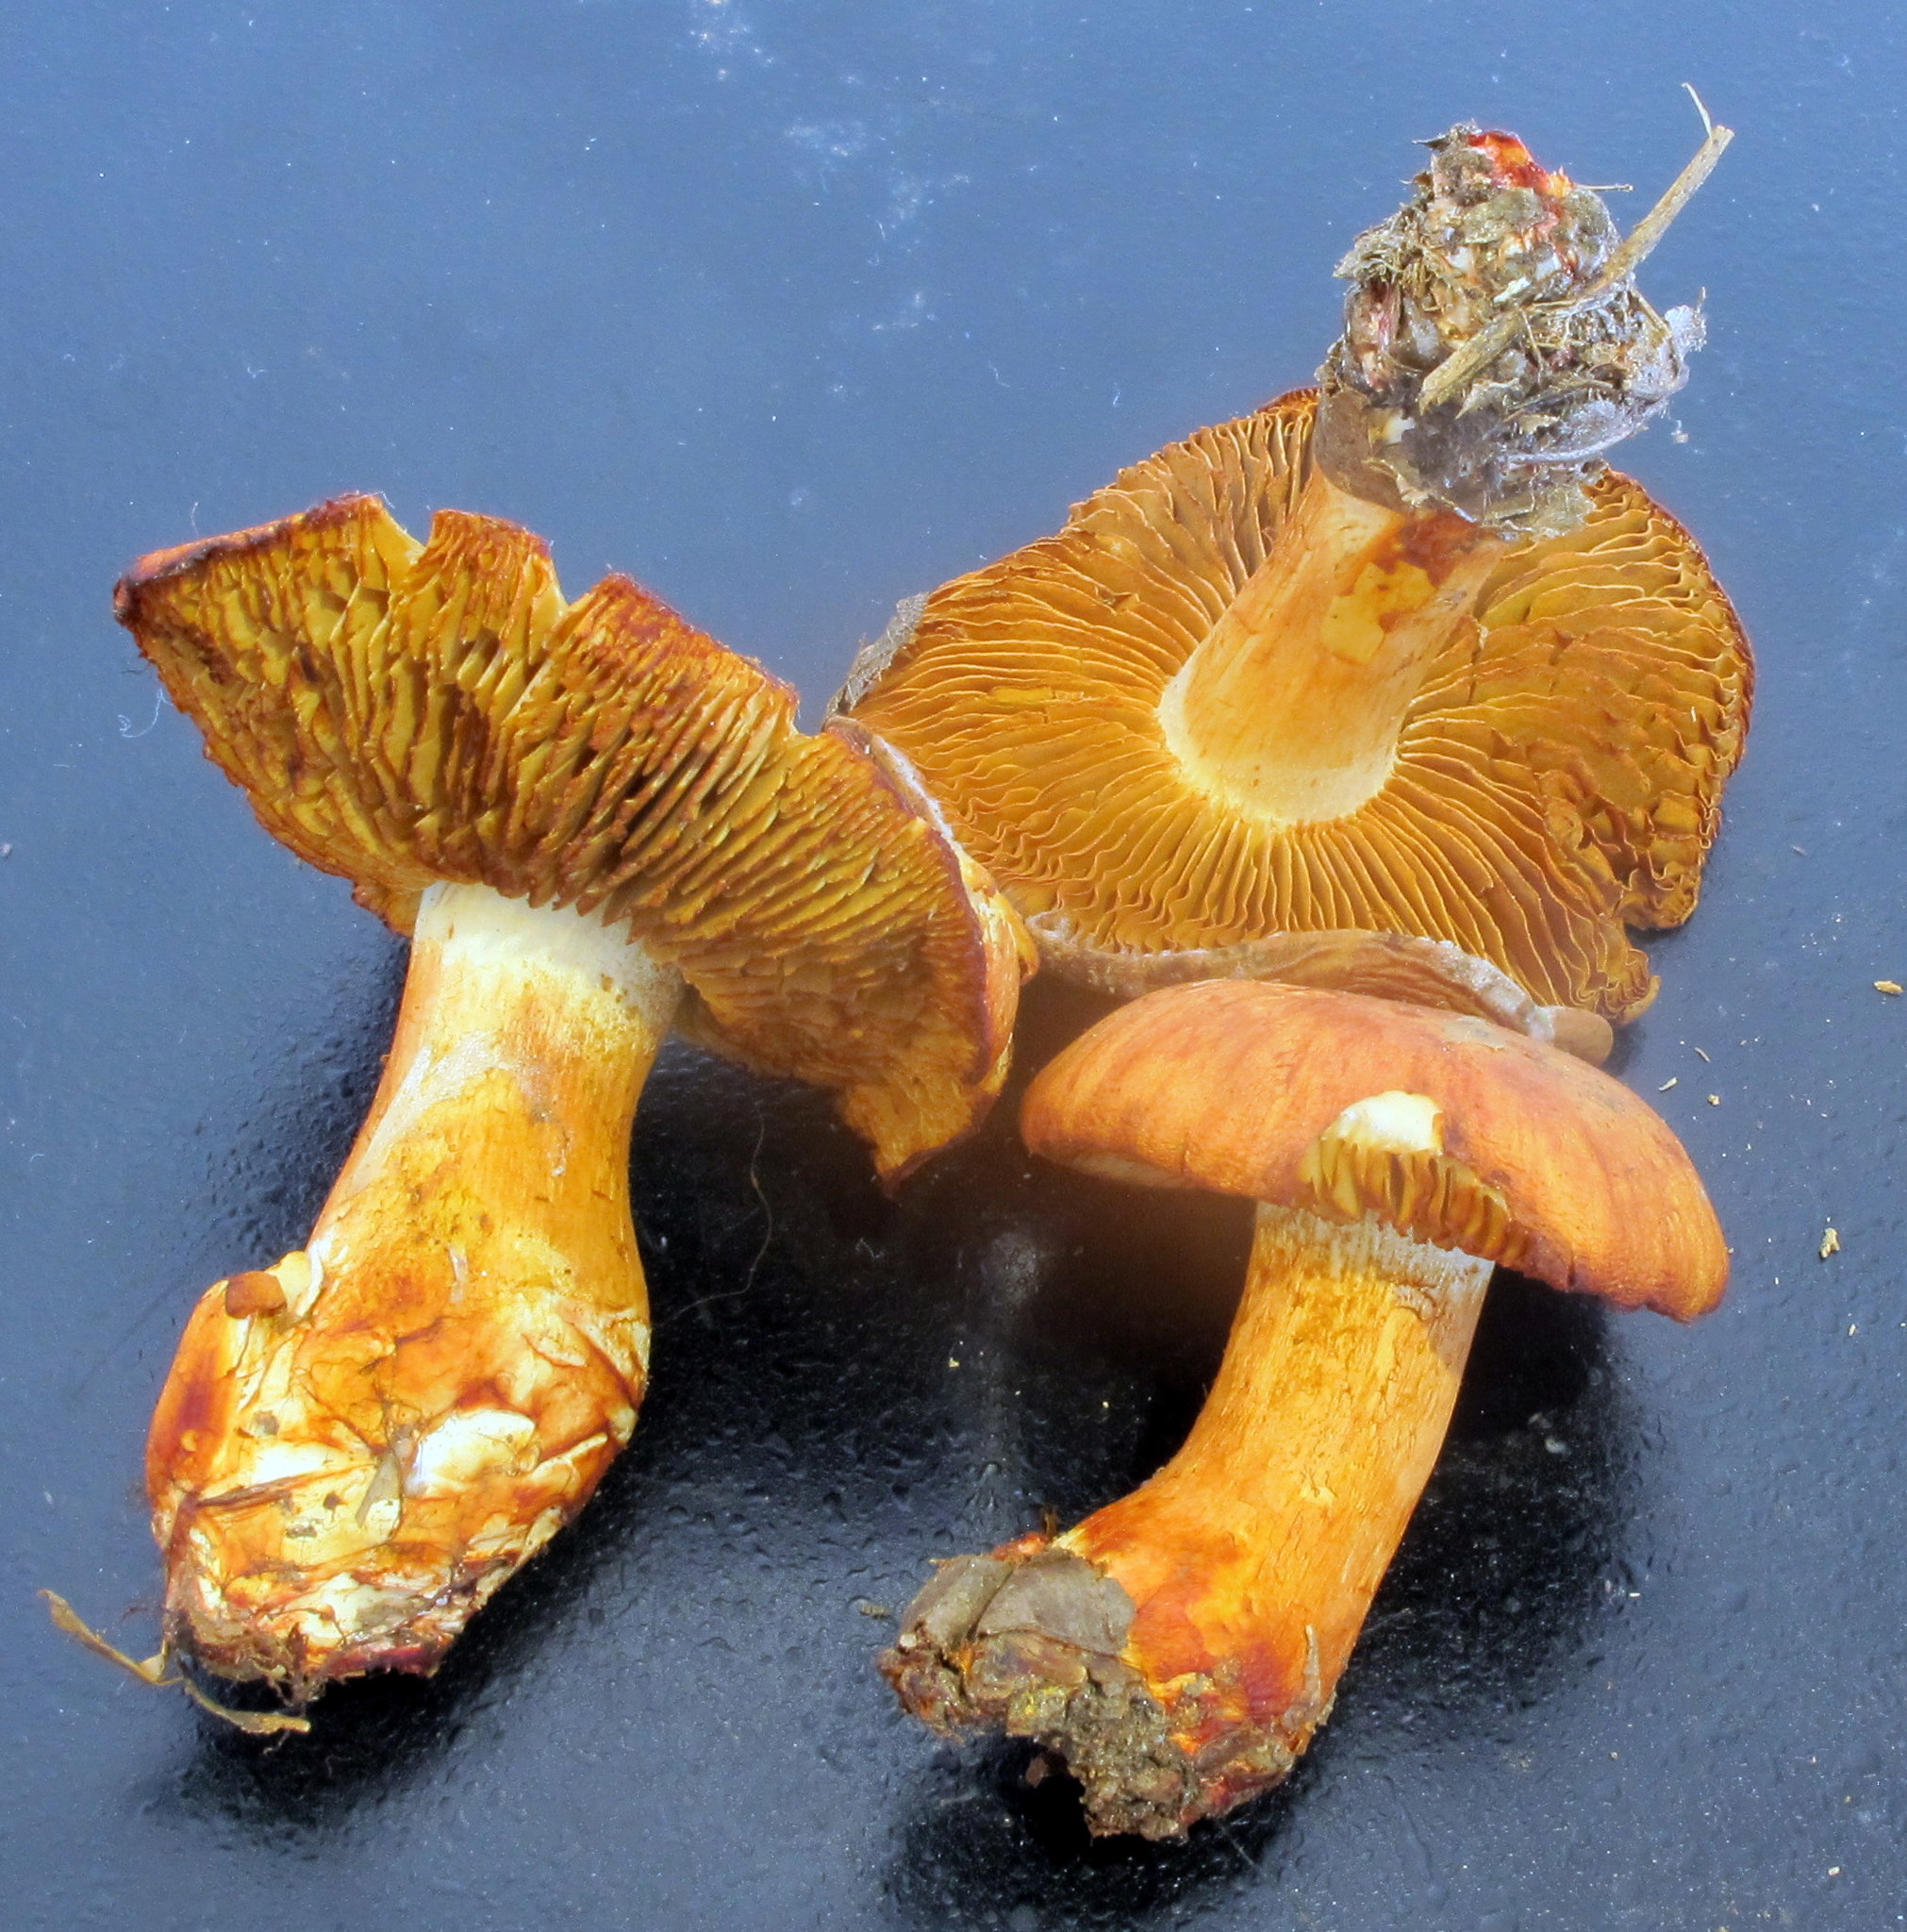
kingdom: Fungi
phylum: Basidiomycota
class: Agaricomycetes
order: Agaricales
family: Cortinariaceae
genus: Cystinarius
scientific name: Cystinarius rubicundulus
